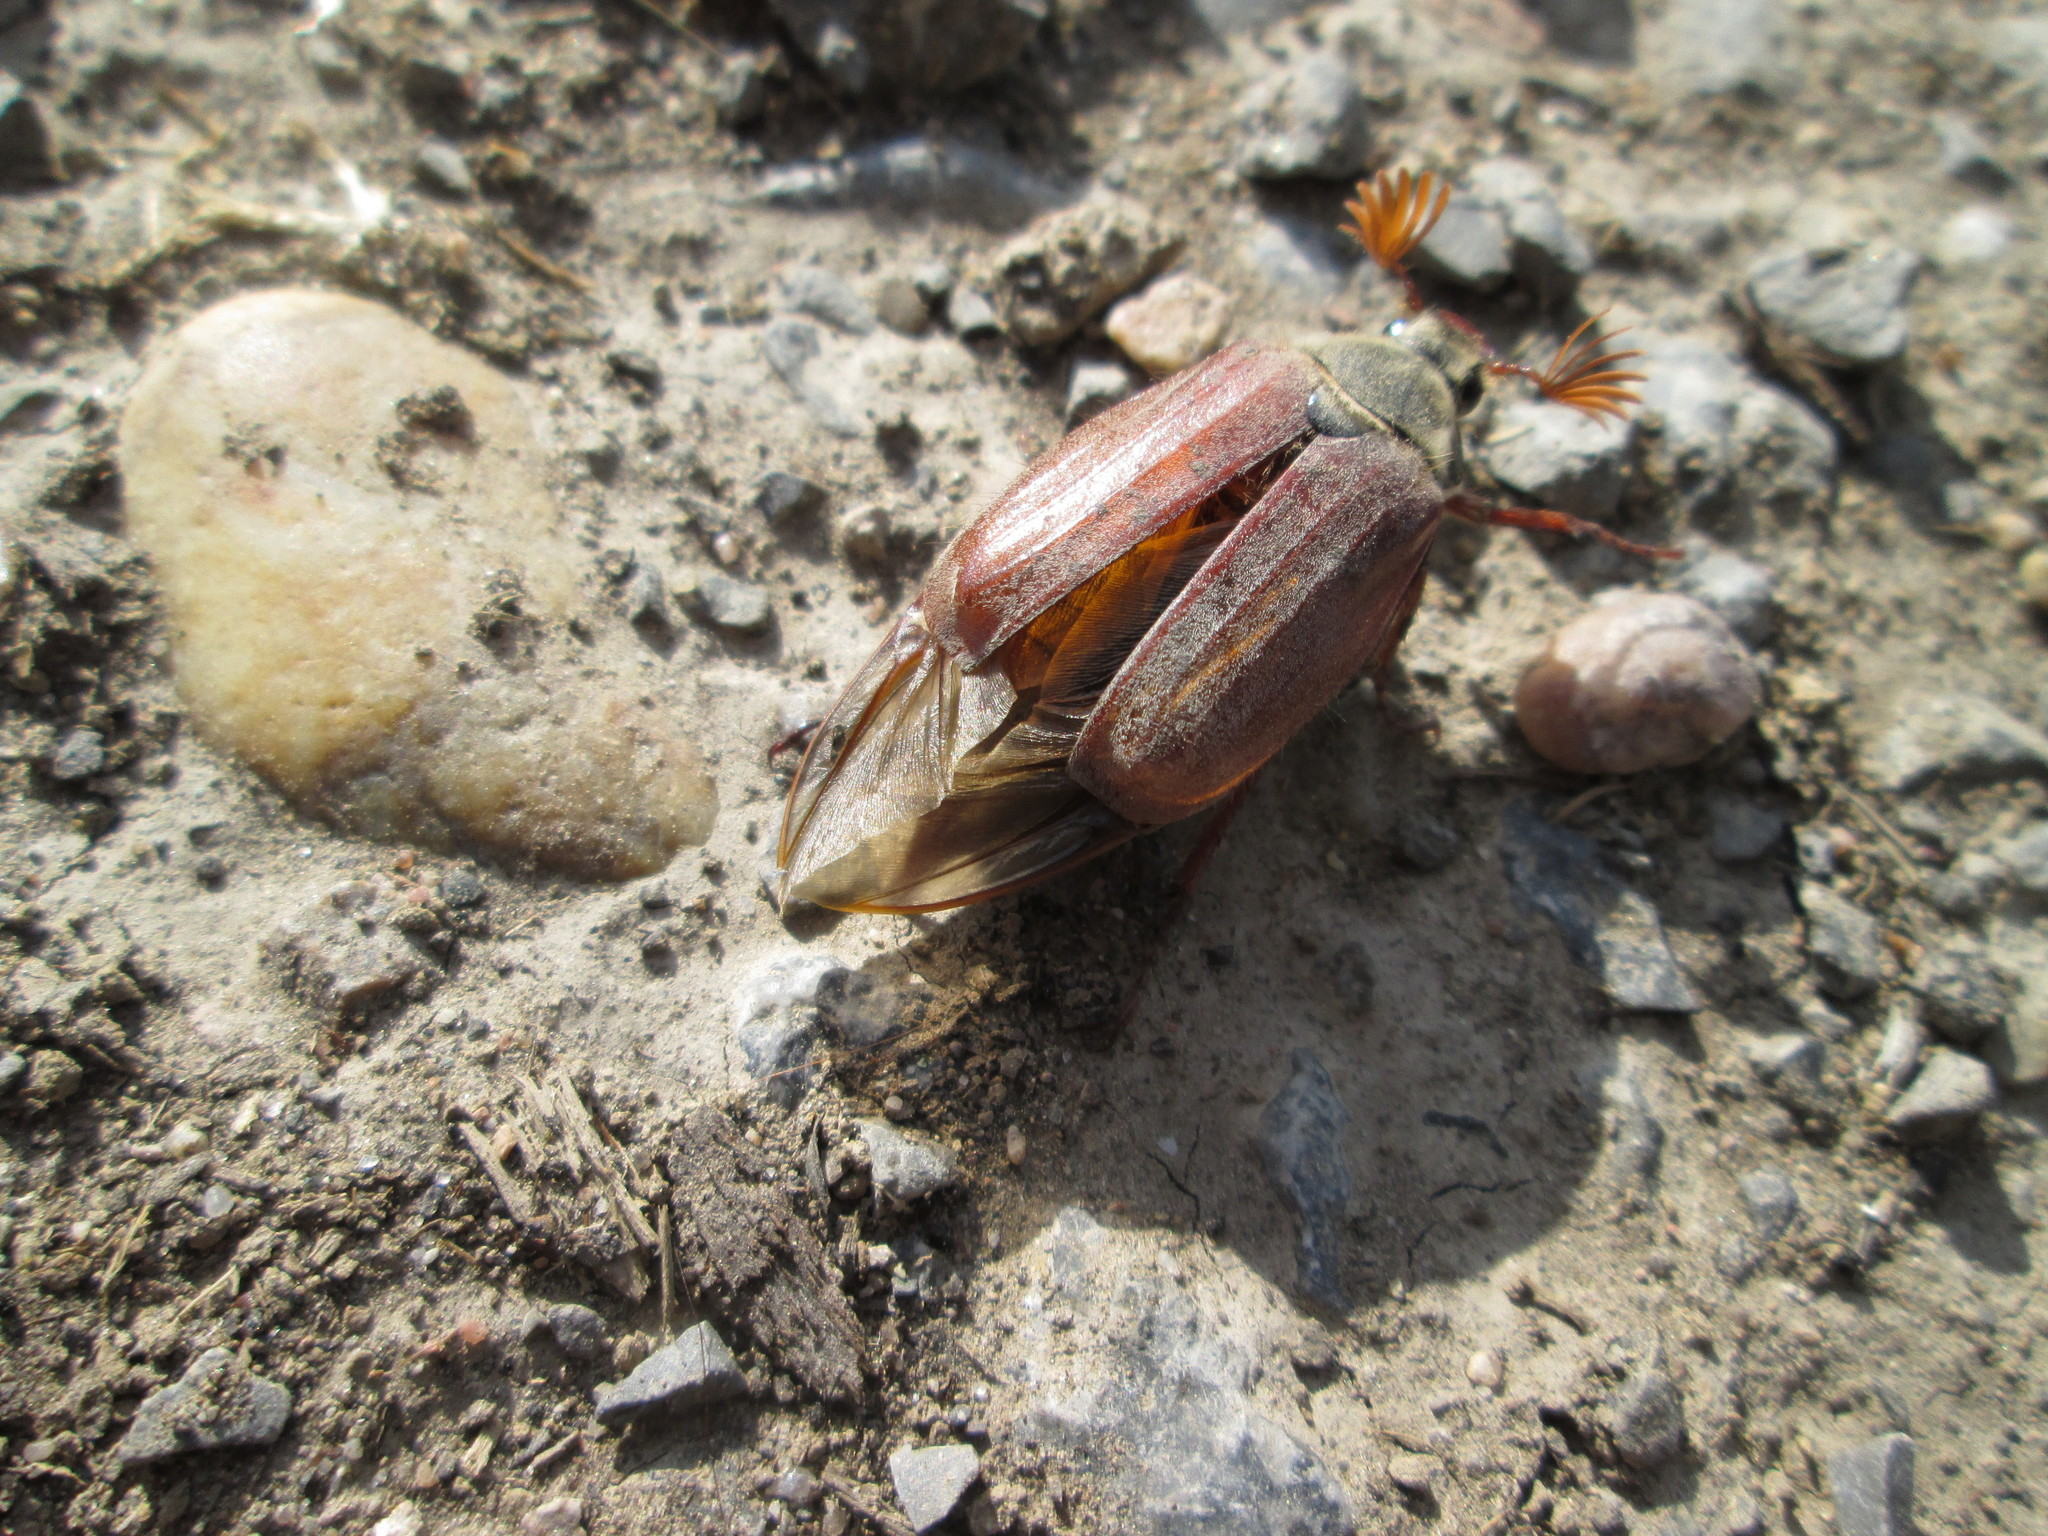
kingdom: Animalia
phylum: Arthropoda
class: Insecta
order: Coleoptera
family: Scarabaeidae
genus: Melolontha
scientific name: Melolontha melolontha
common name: Cockchafer maybeetle
